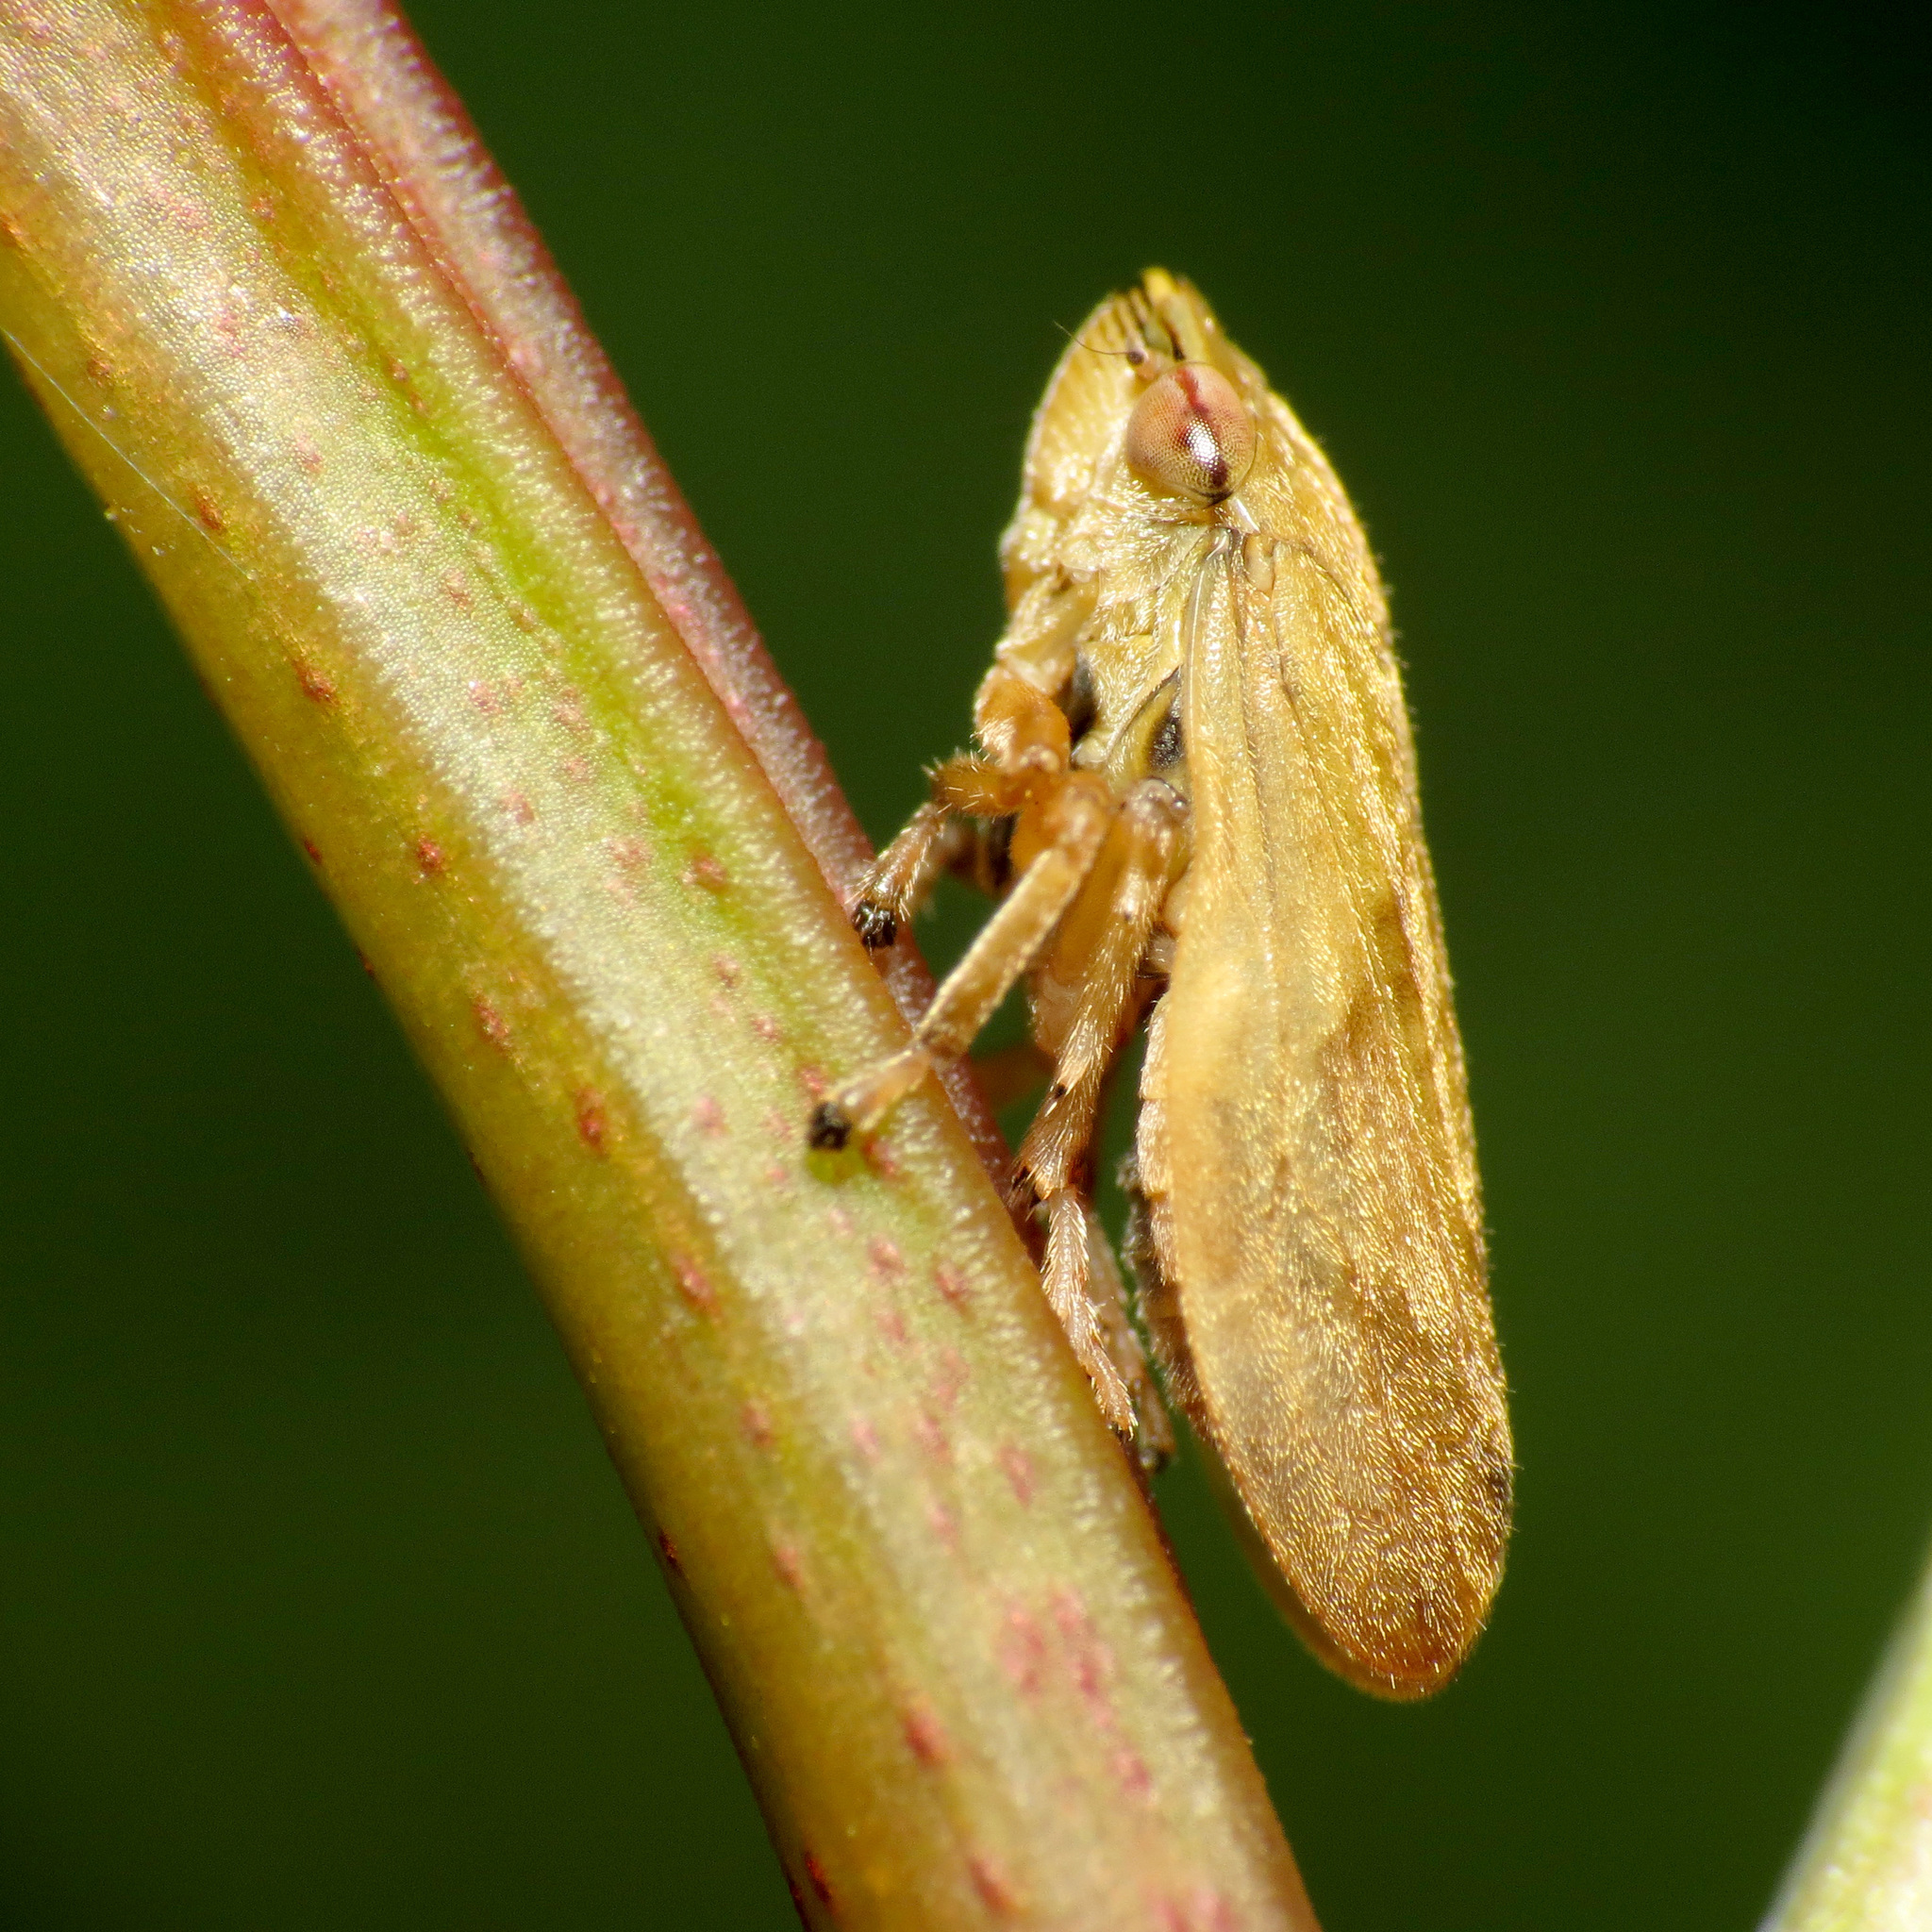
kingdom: Animalia
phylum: Arthropoda
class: Insecta
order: Hemiptera
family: Aphrophoridae
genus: Philaenus
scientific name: Philaenus spumarius
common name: Meadow spittlebug
